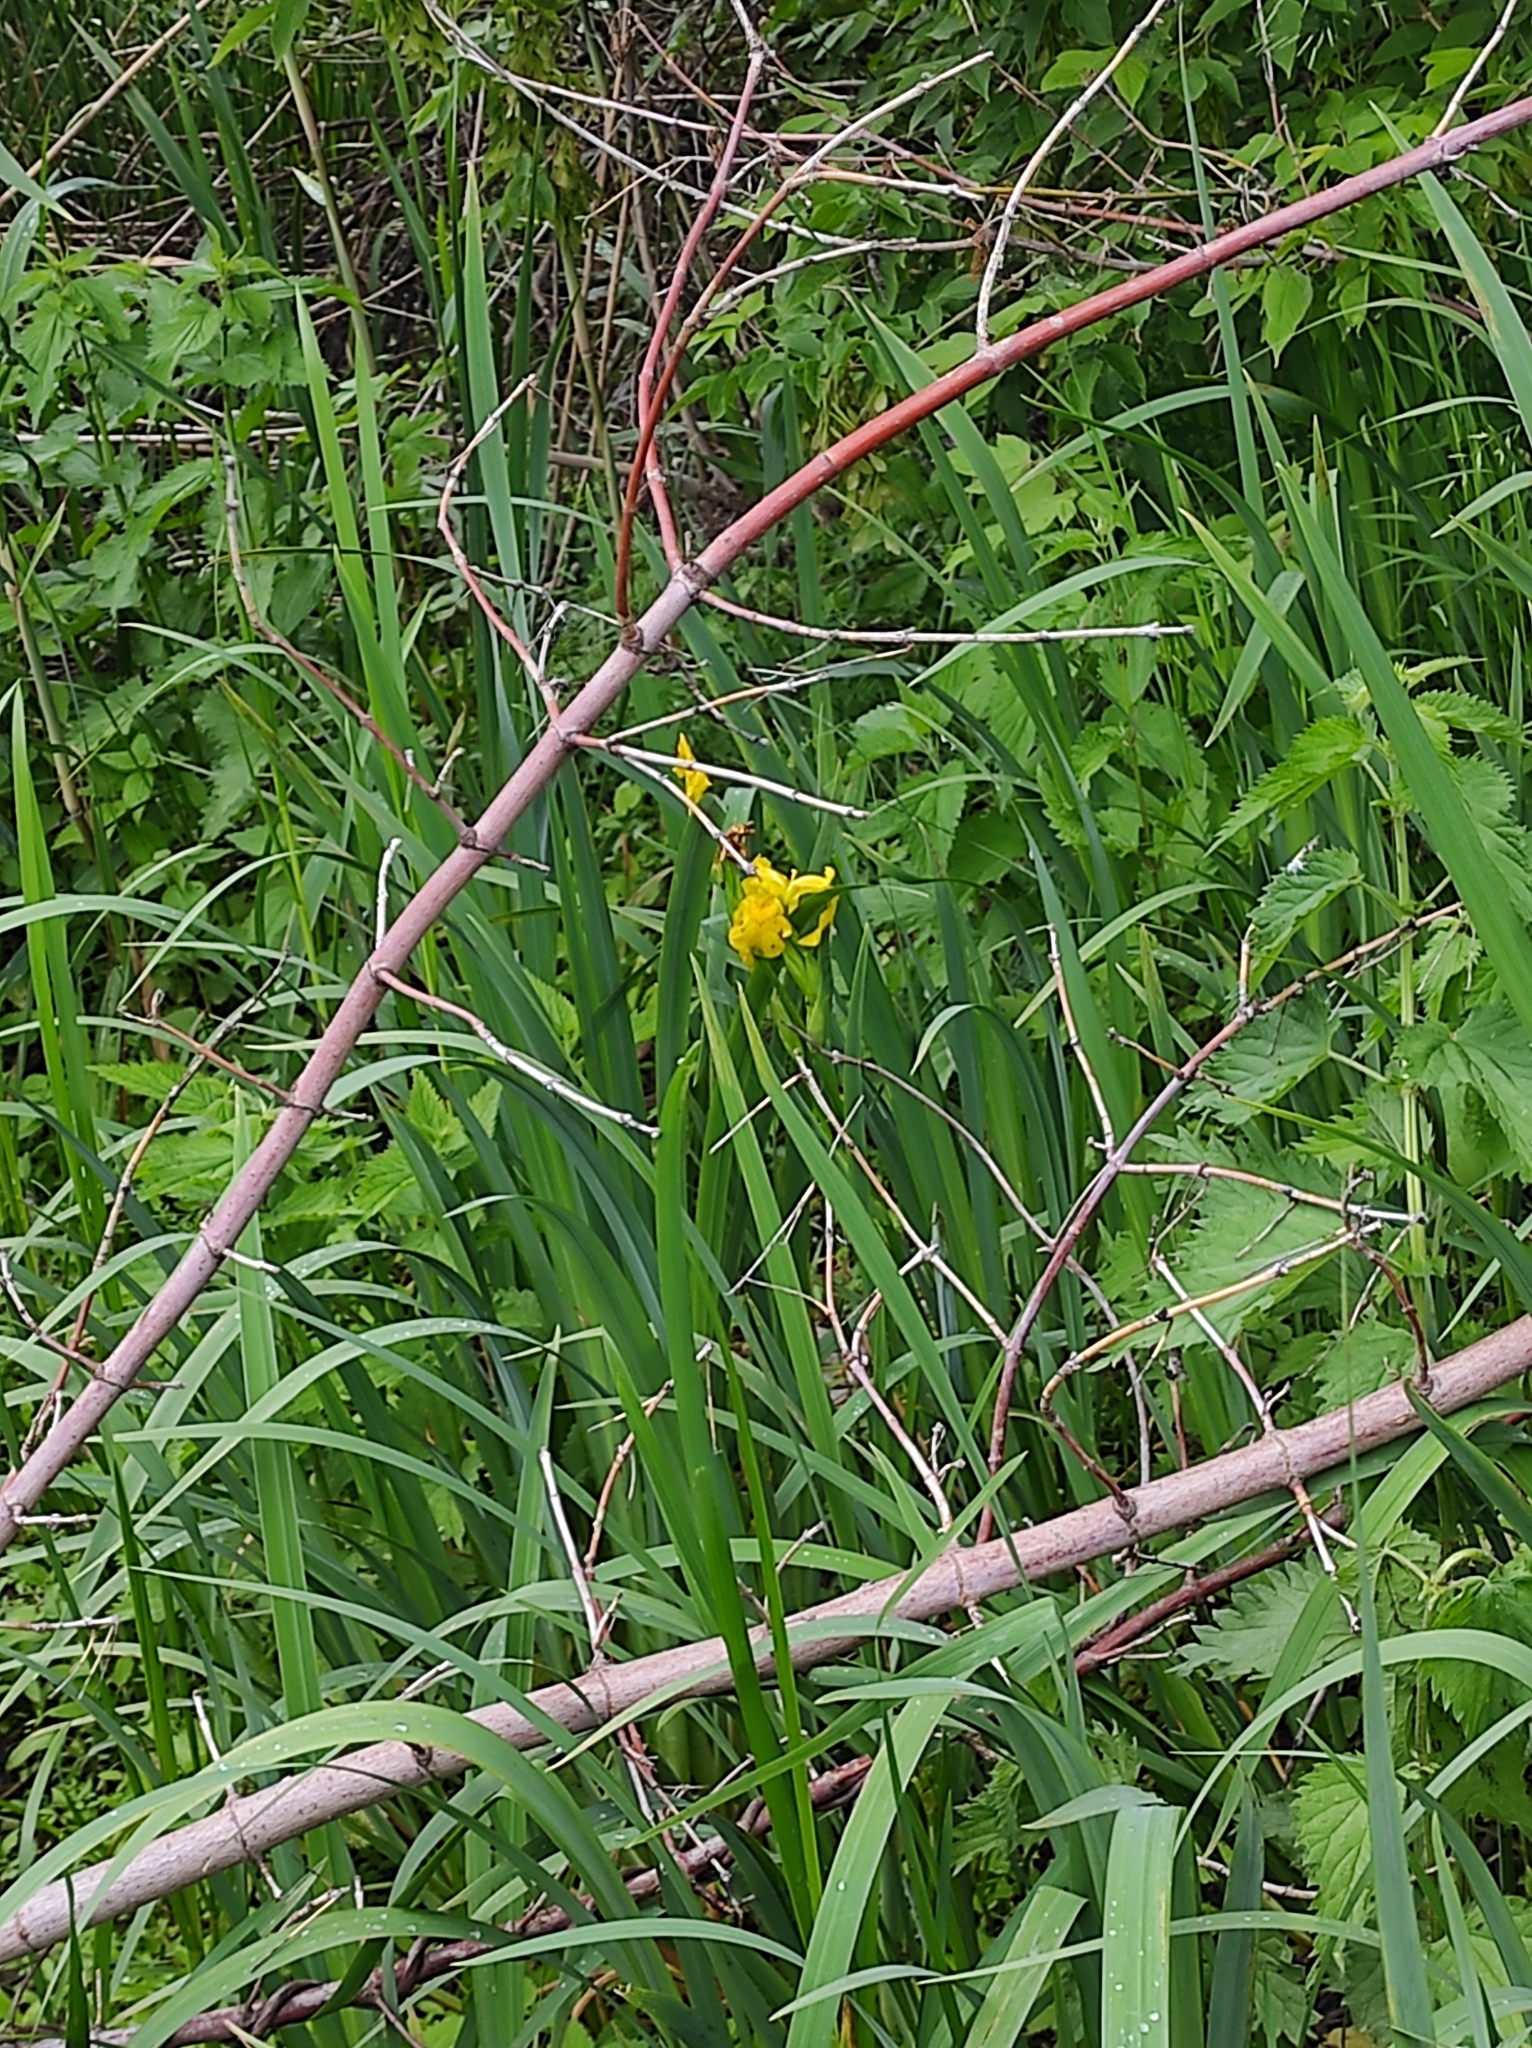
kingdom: Plantae
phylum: Tracheophyta
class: Liliopsida
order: Asparagales
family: Iridaceae
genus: Iris
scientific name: Iris pseudacorus
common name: Yellow flag
